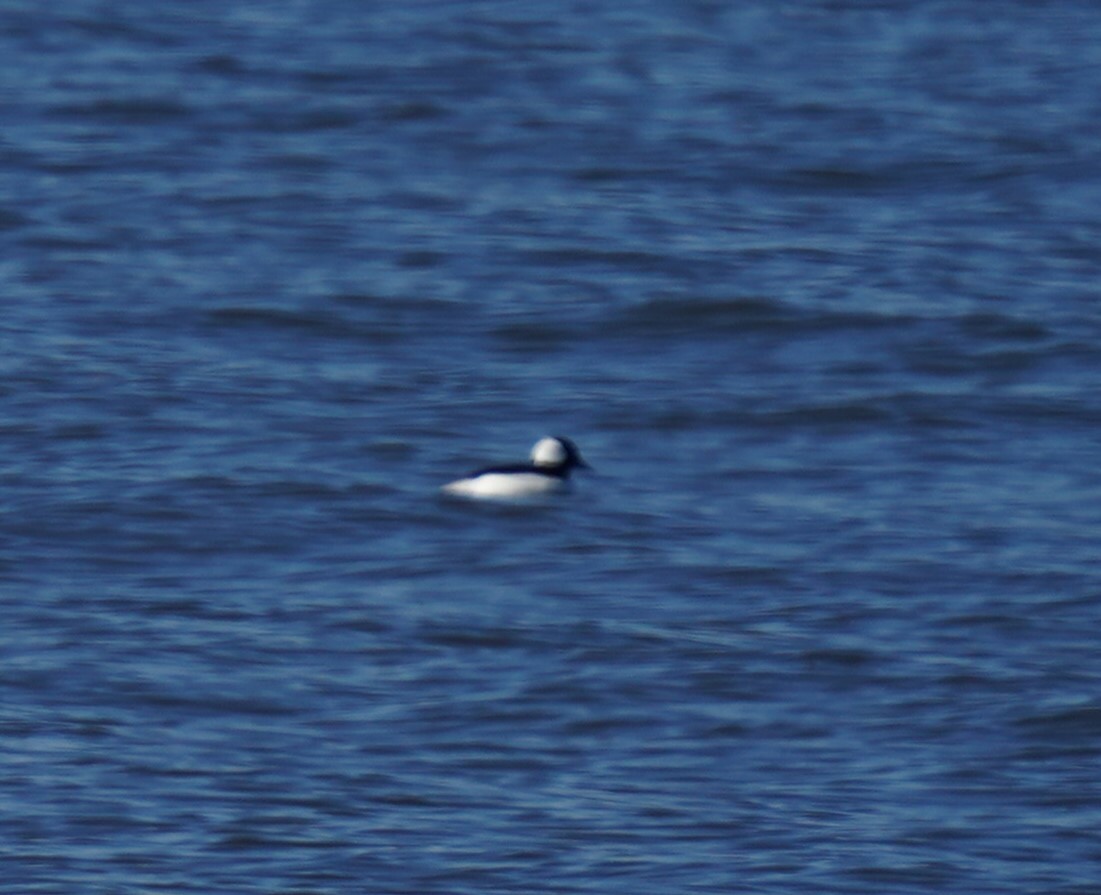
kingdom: Animalia
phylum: Chordata
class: Aves
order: Anseriformes
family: Anatidae
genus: Bucephala
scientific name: Bucephala albeola
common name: Bufflehead
